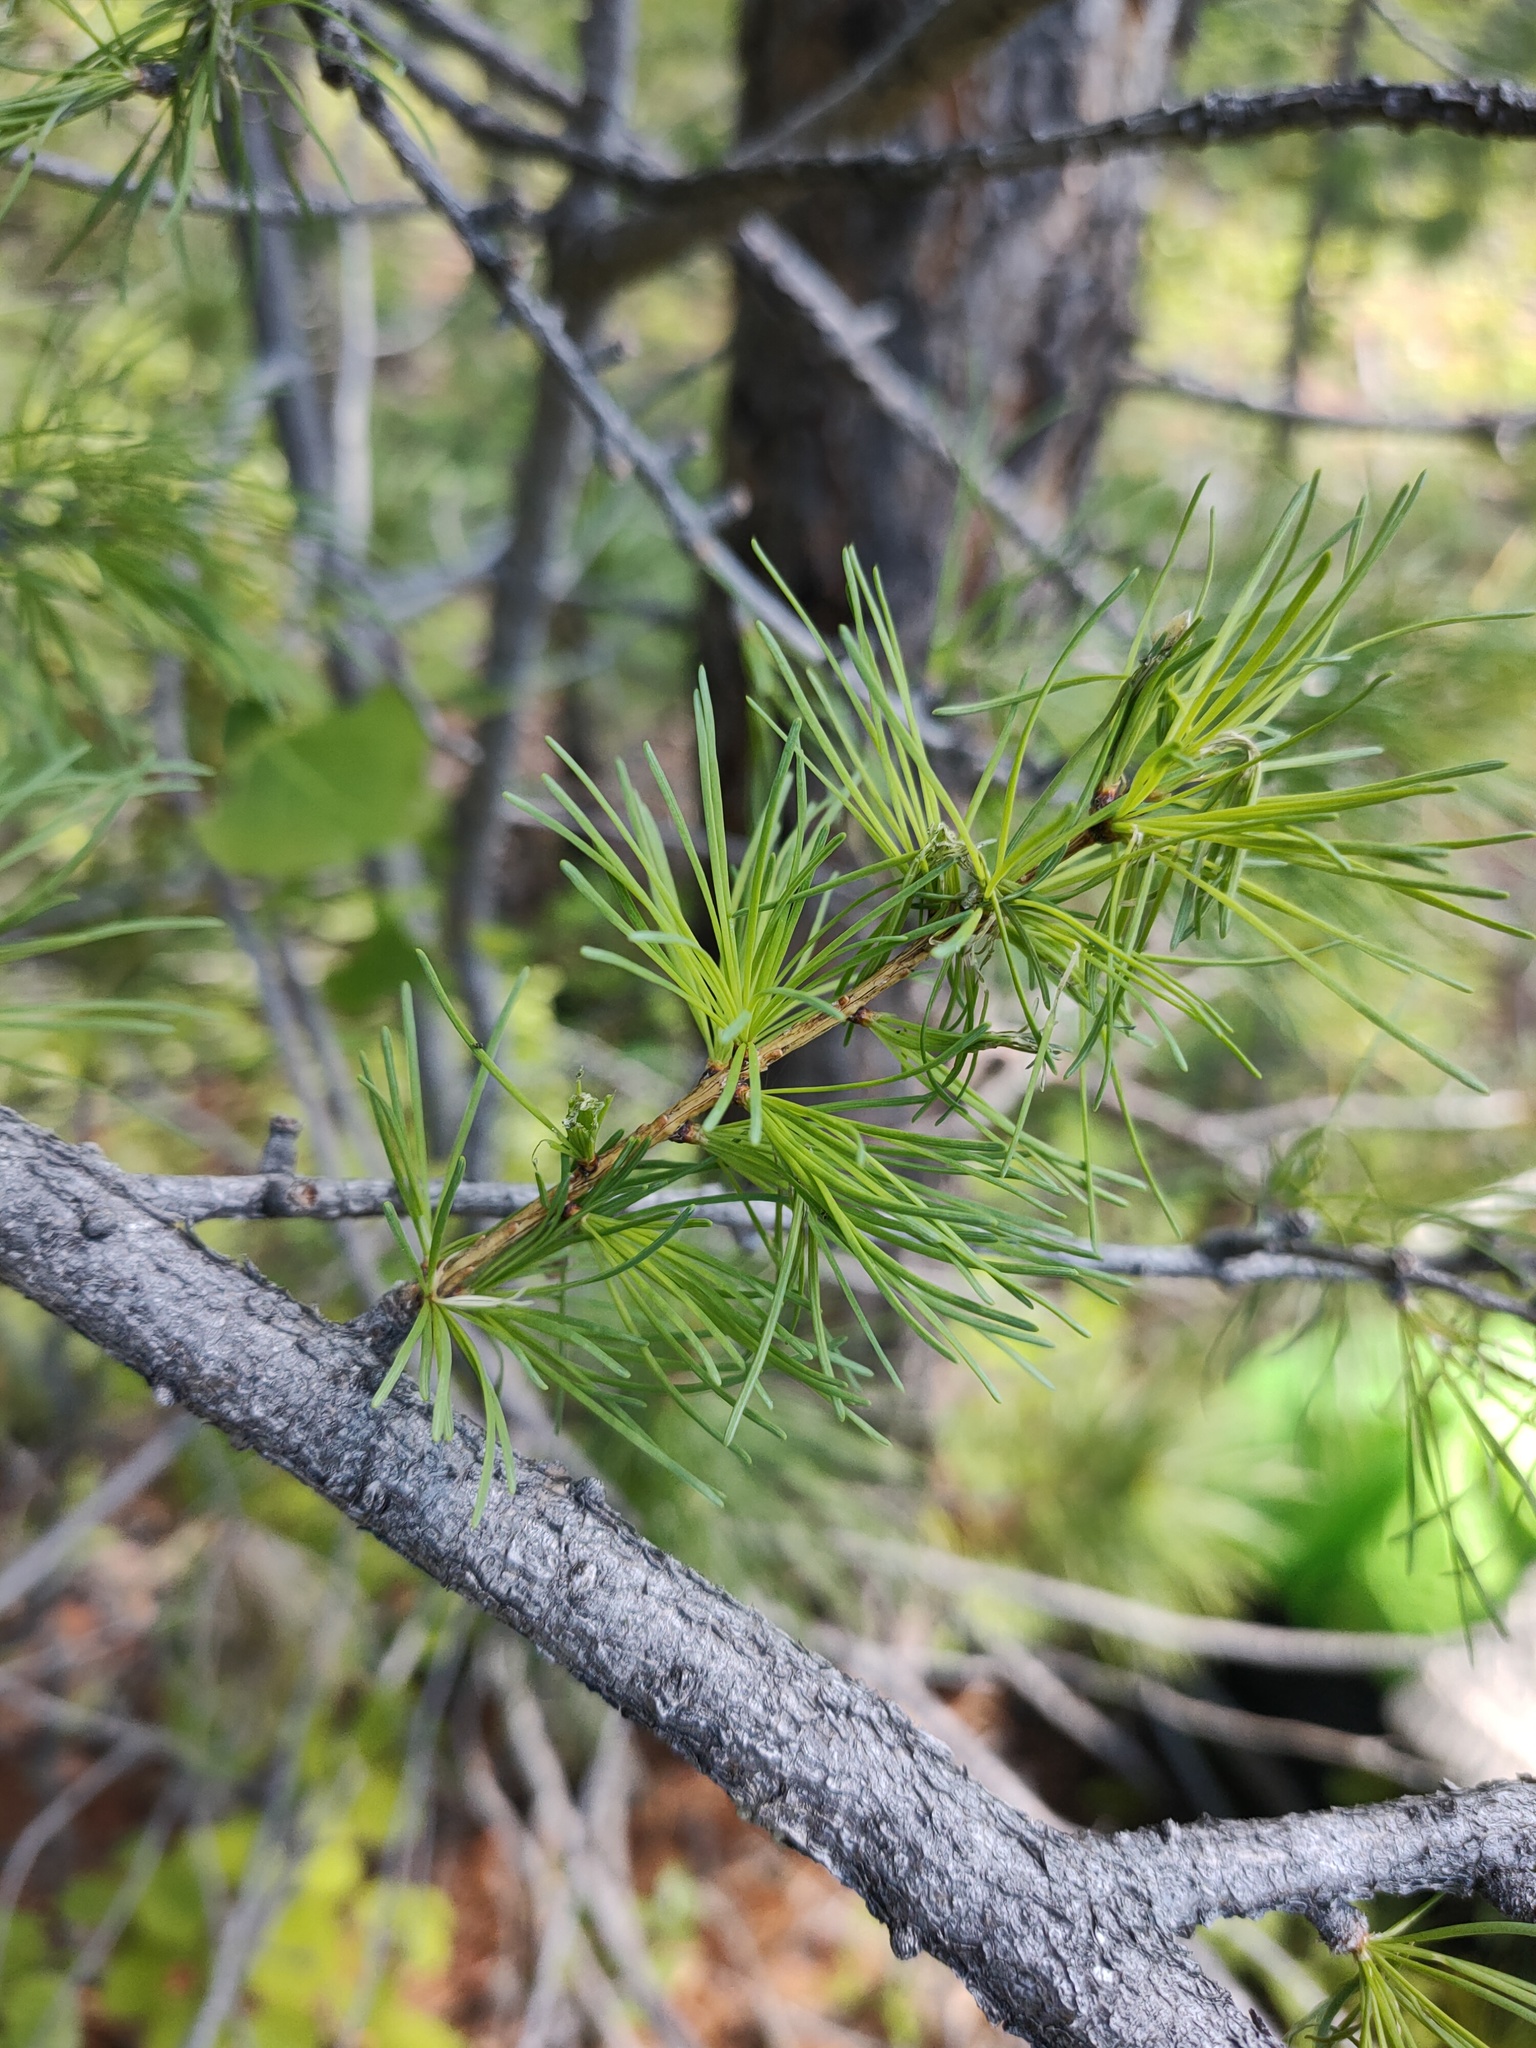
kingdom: Plantae
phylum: Tracheophyta
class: Pinopsida
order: Pinales
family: Pinaceae
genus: Larix
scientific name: Larix sibirica
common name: Siberian larch
